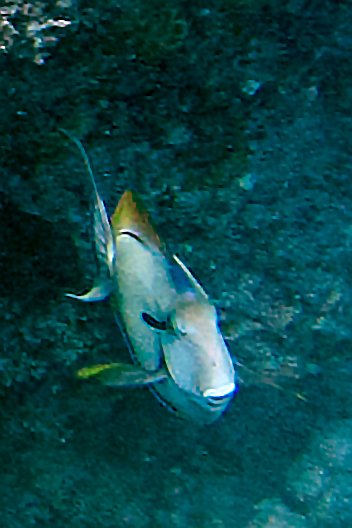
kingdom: Animalia
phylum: Chordata
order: Perciformes
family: Acanthuridae
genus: Acanthurus
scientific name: Acanthurus nigricauda
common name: Black-barred surgeonfish
